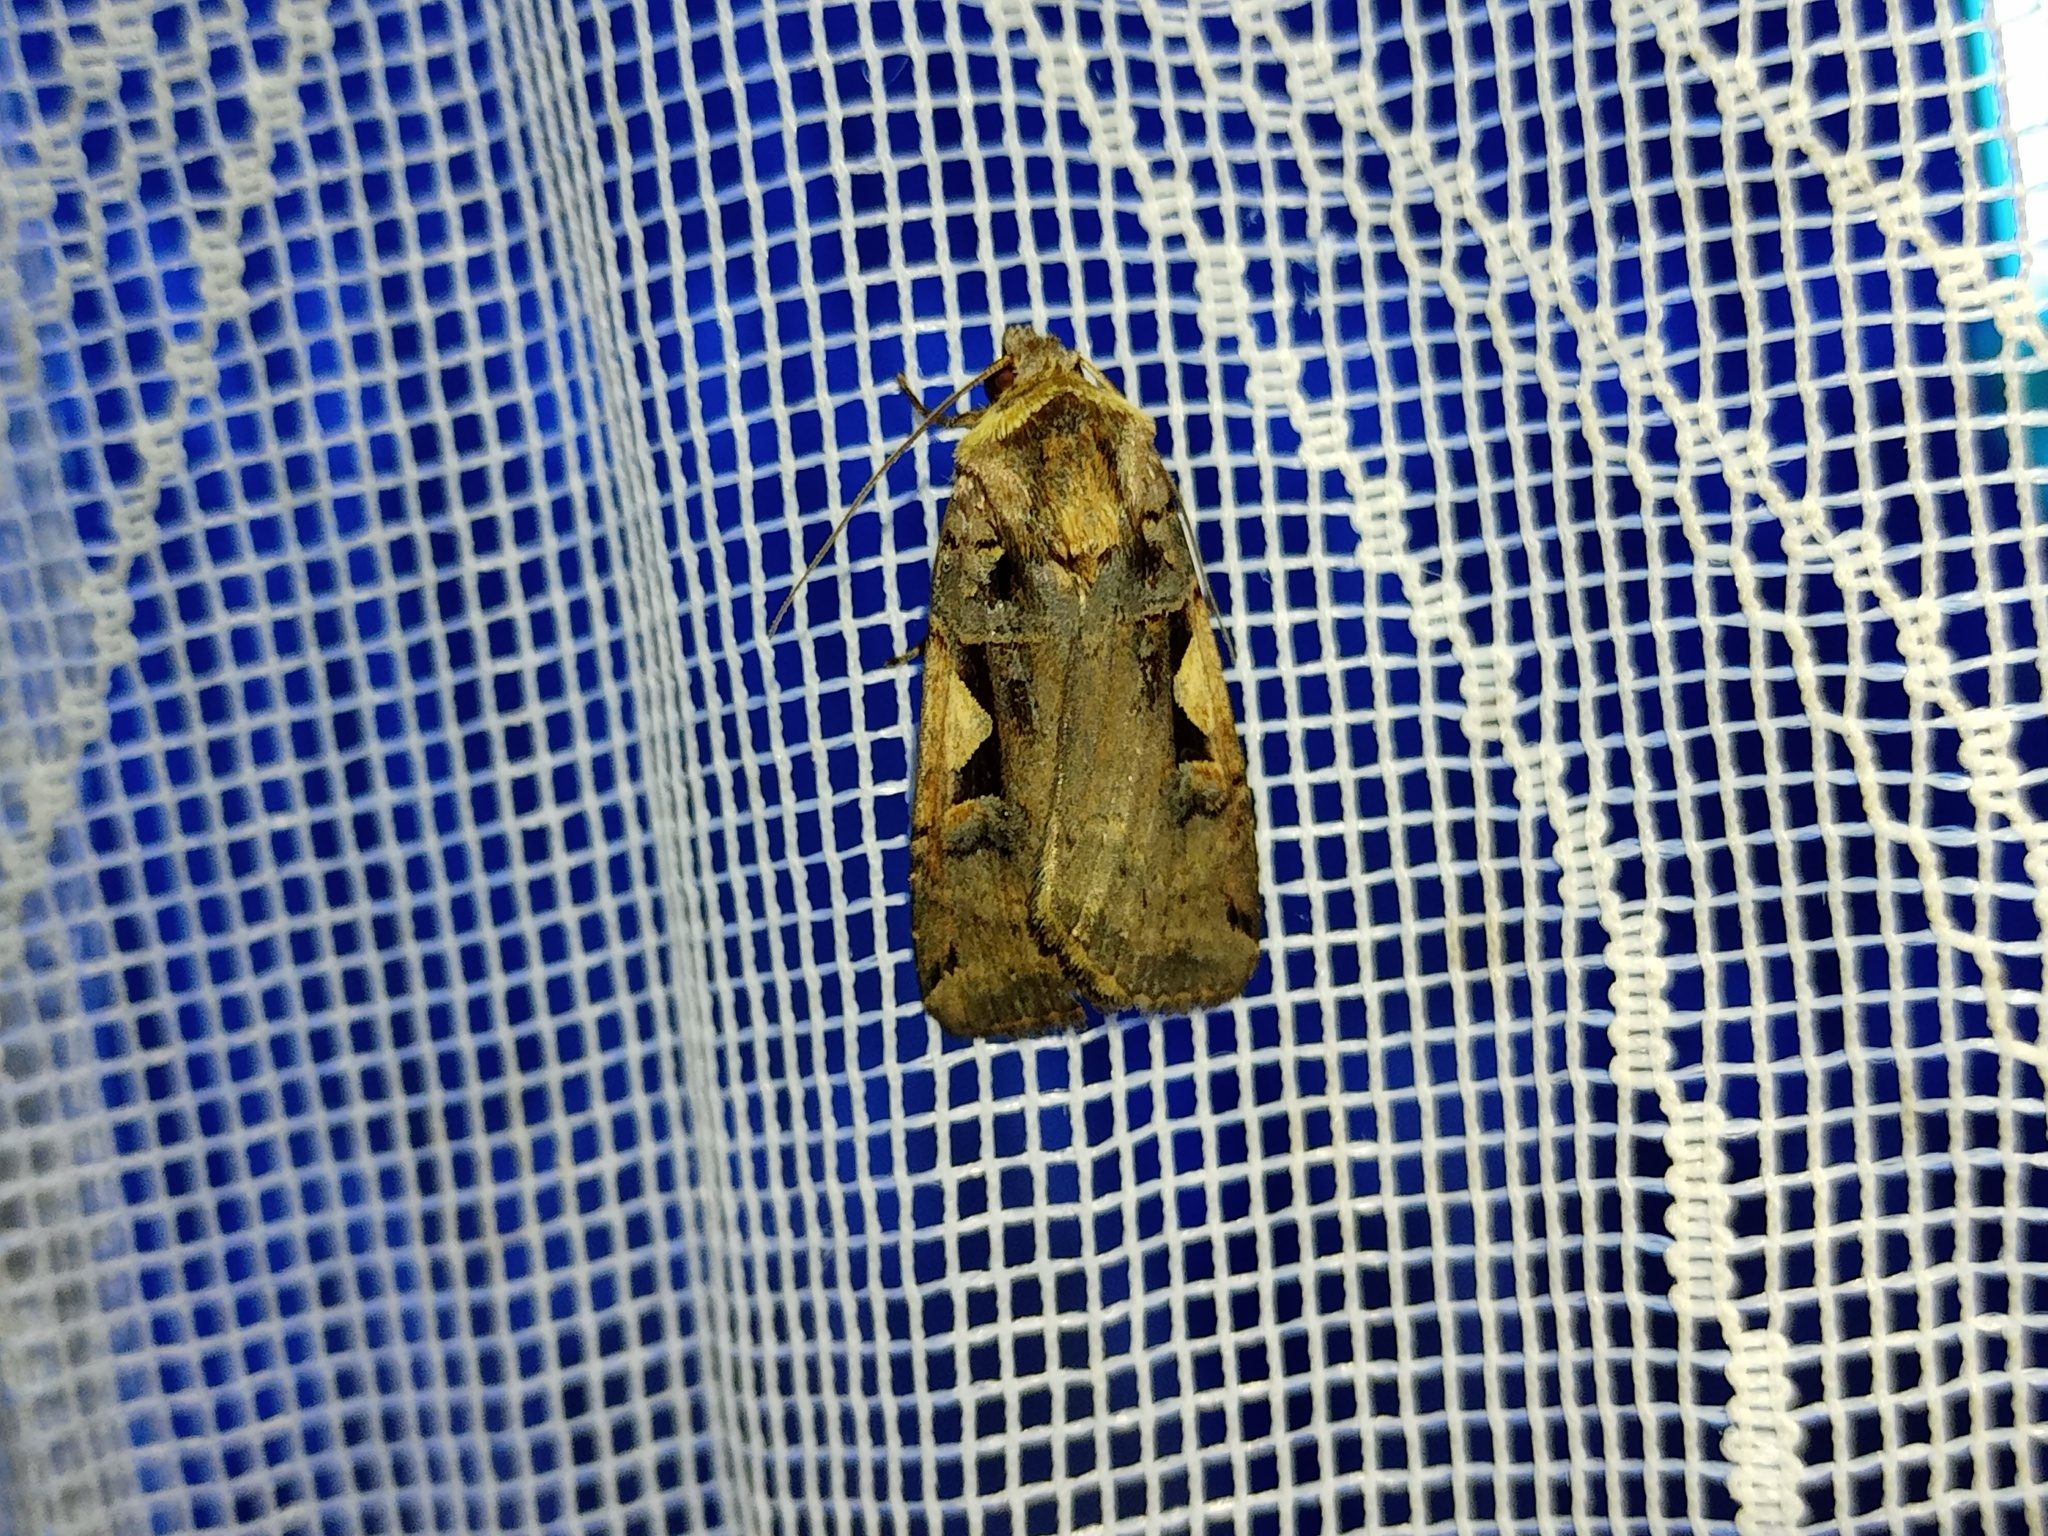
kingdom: Animalia
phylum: Arthropoda
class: Insecta
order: Lepidoptera
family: Noctuidae
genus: Xestia
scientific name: Xestia c-nigrum
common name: Setaceous hebrew character
